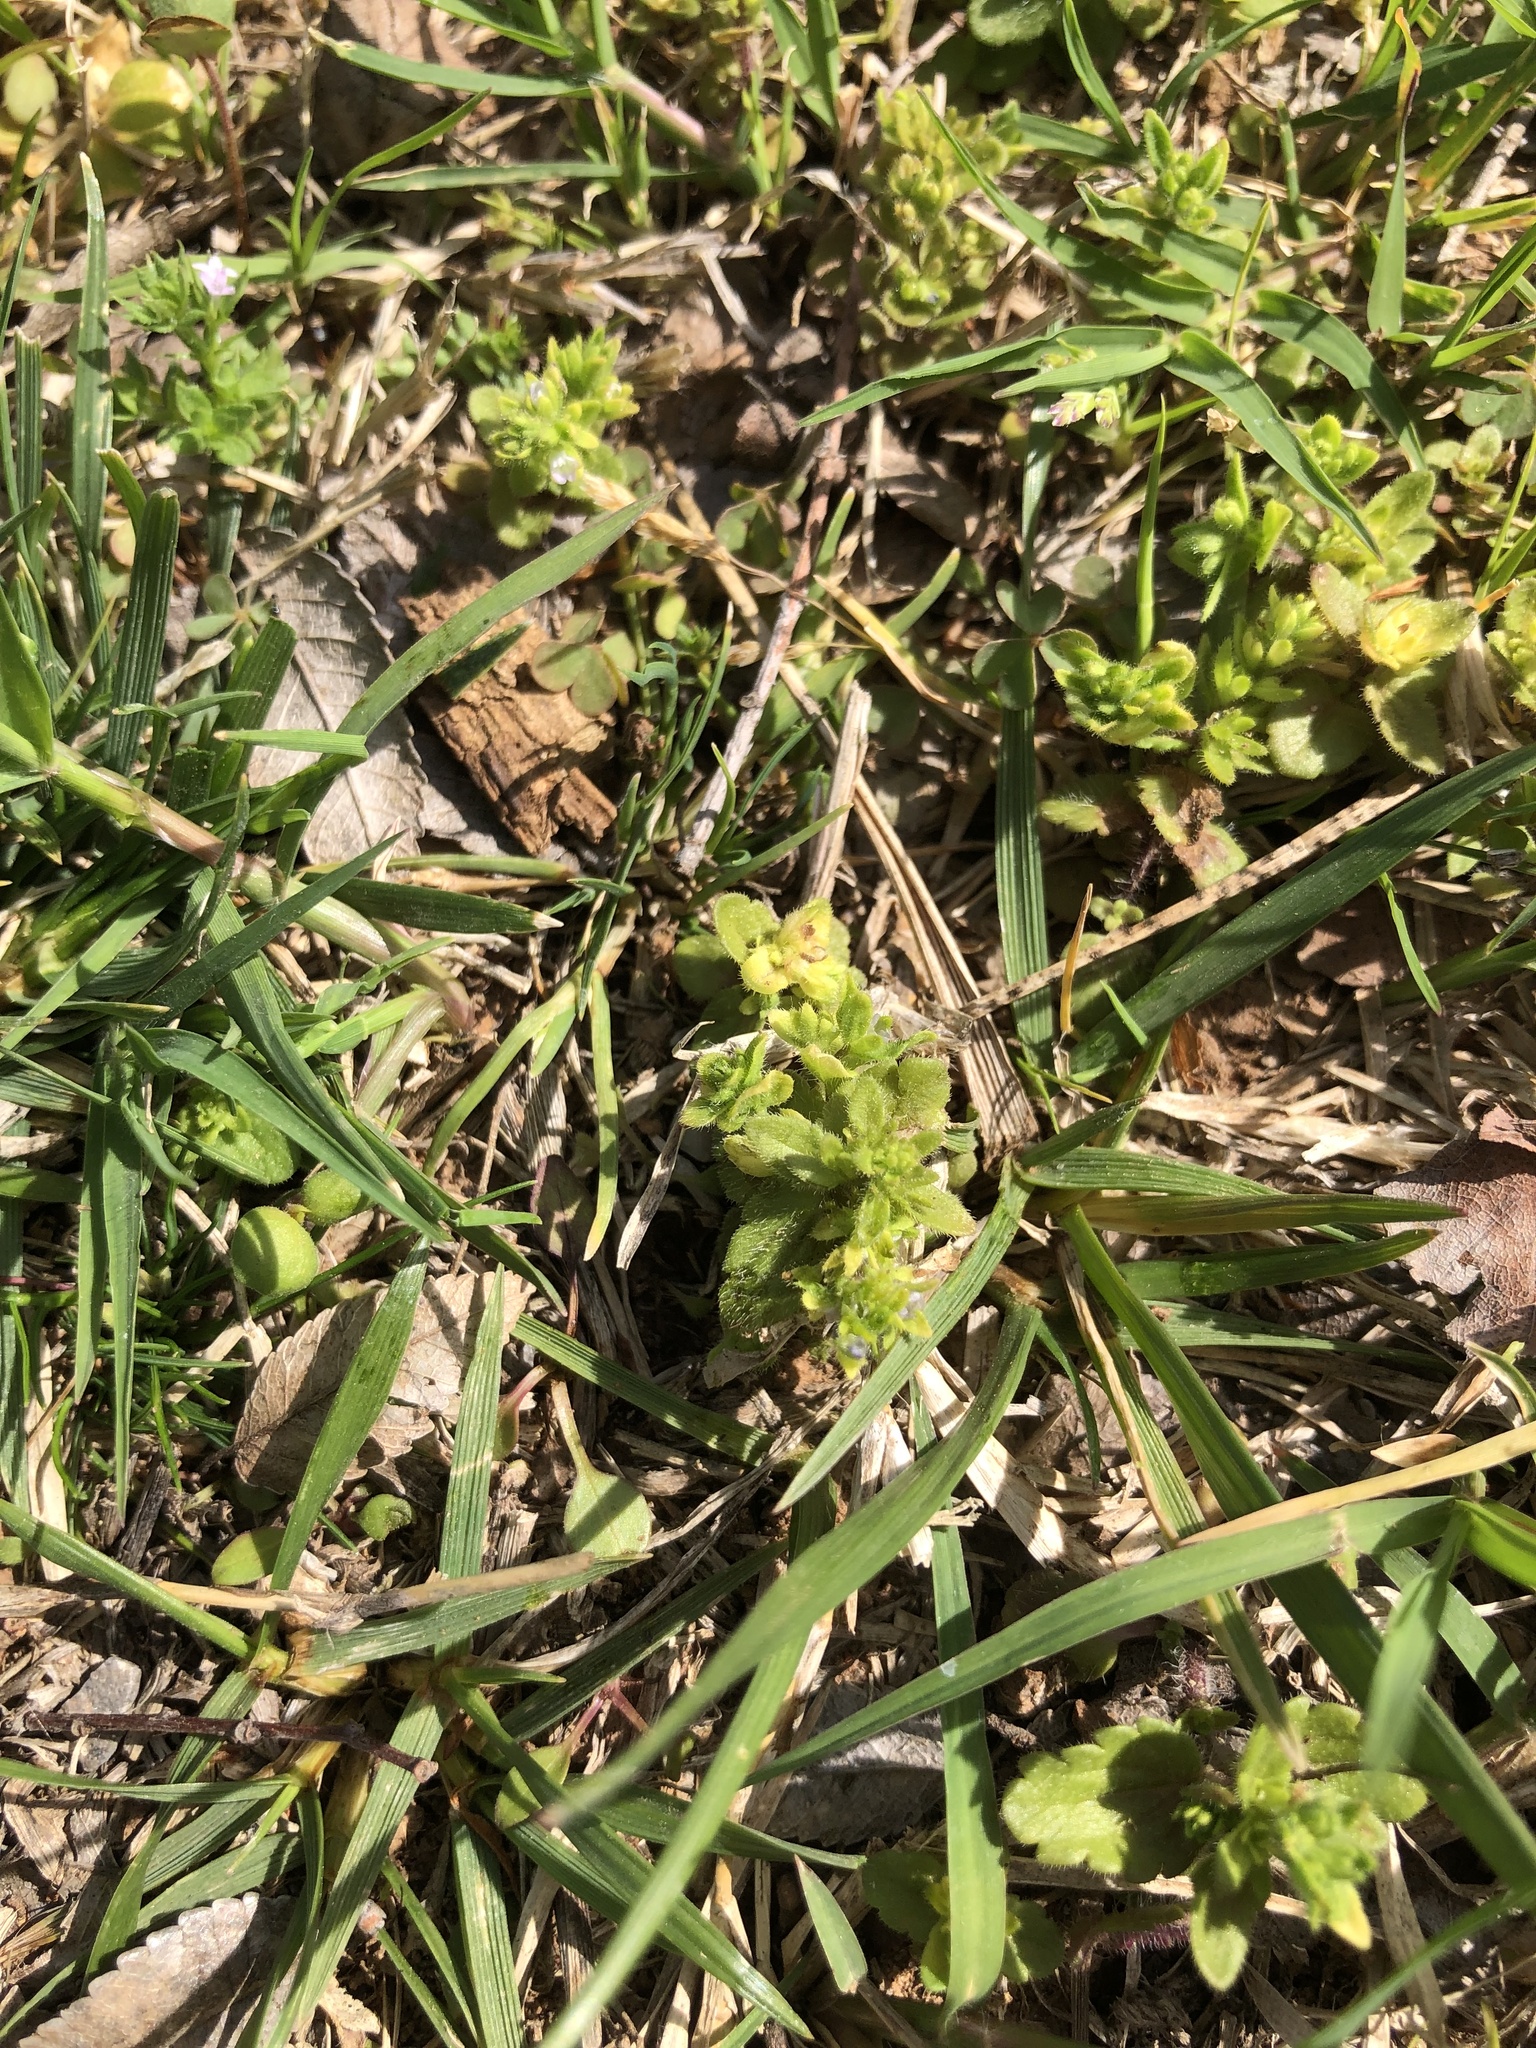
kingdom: Plantae
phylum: Tracheophyta
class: Magnoliopsida
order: Gentianales
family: Rubiaceae
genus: Sherardia
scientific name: Sherardia arvensis
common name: Field madder
